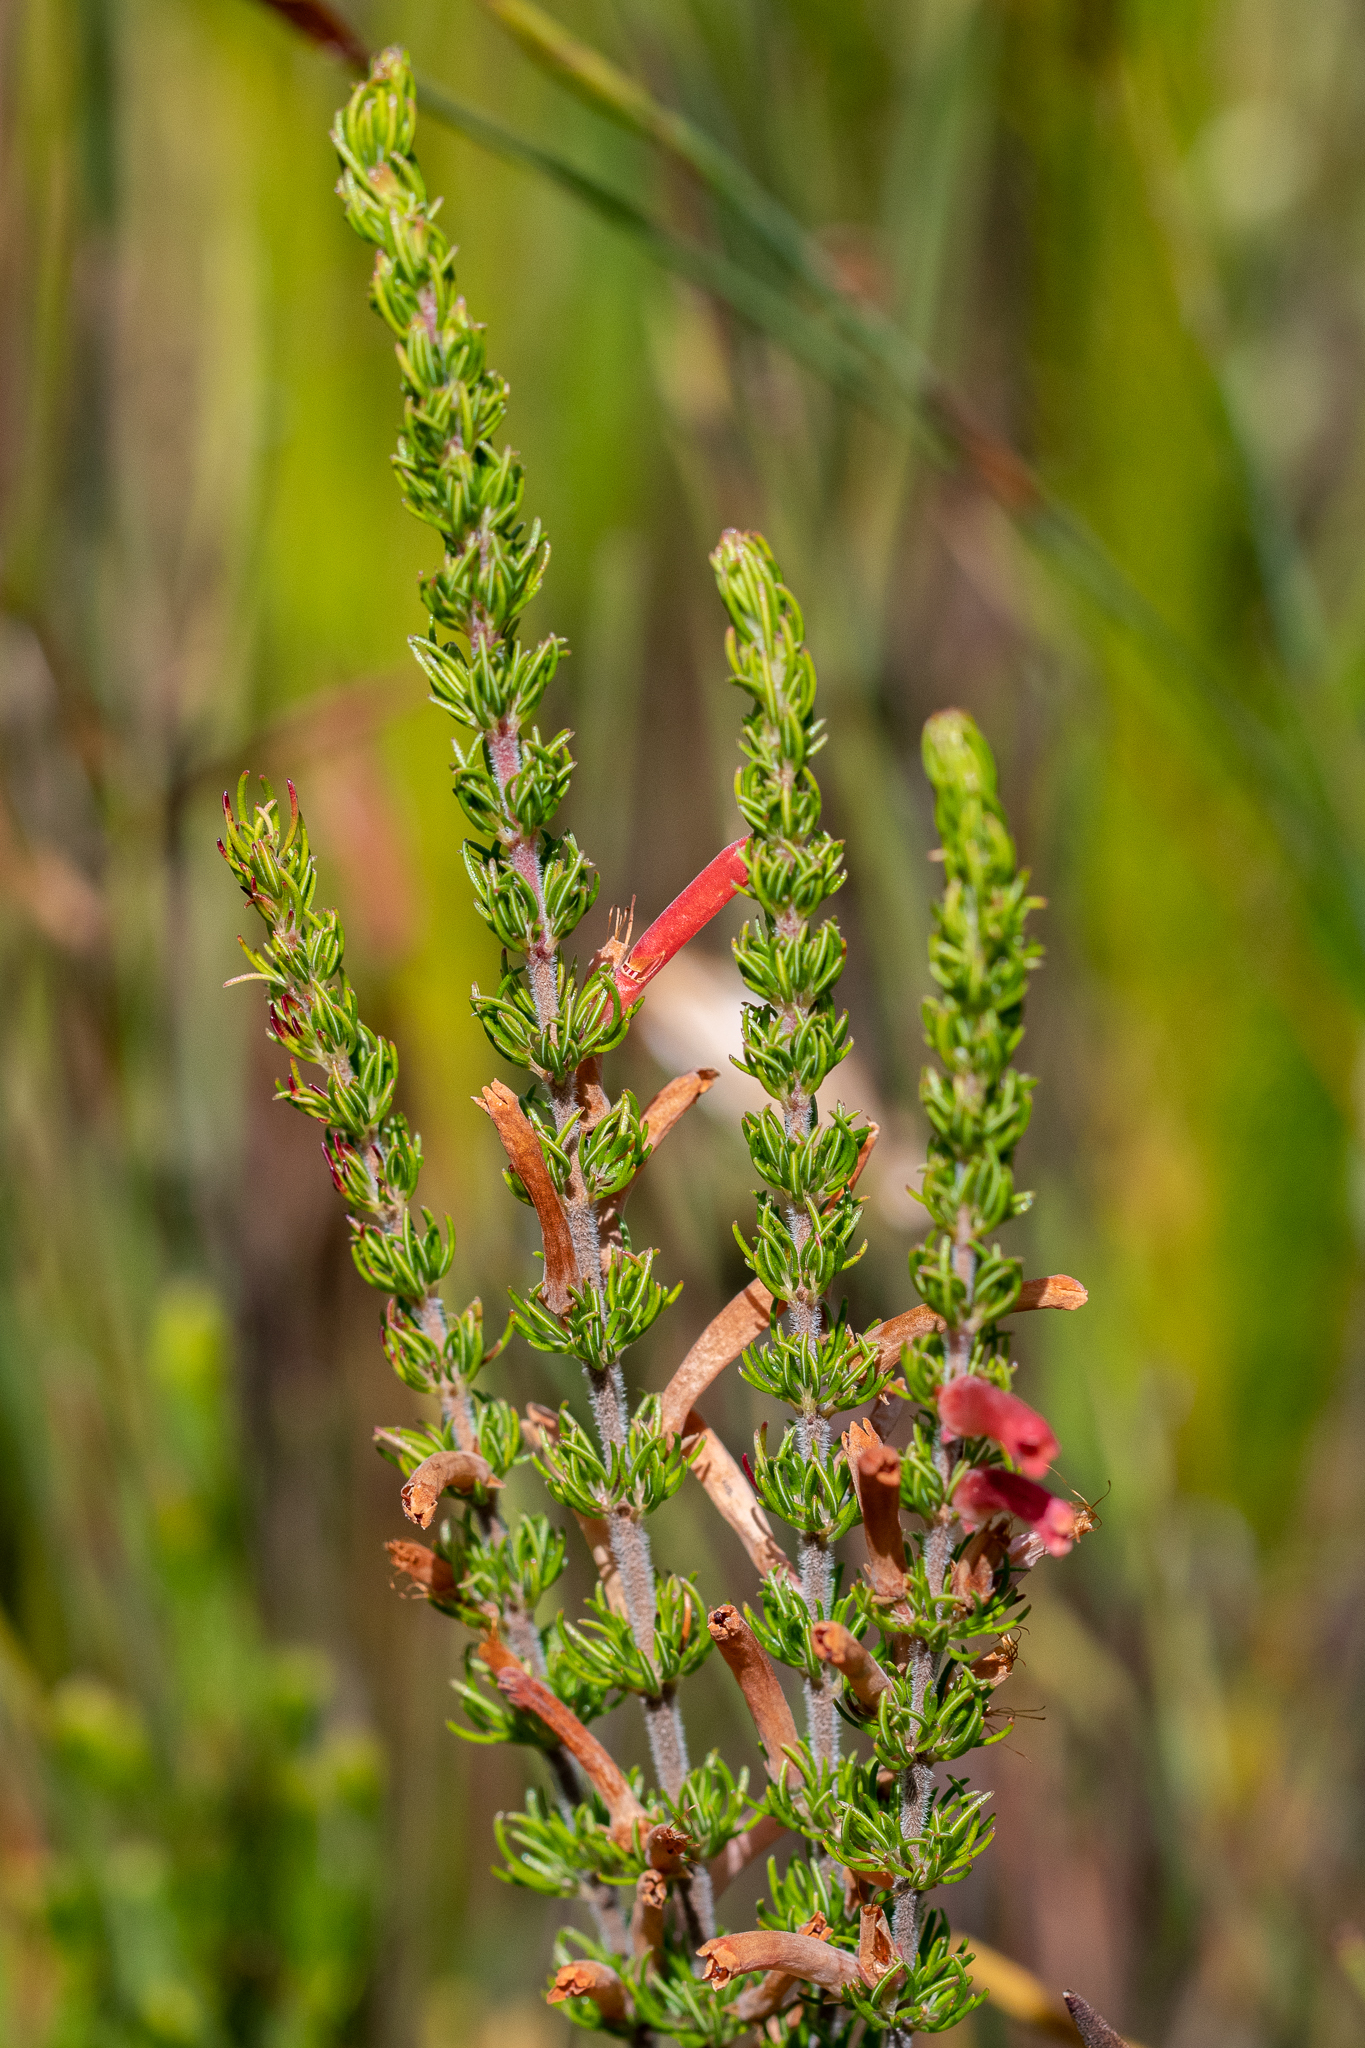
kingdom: Plantae
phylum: Tracheophyta
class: Magnoliopsida
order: Ericales
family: Ericaceae
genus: Erica
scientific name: Erica pillansii
